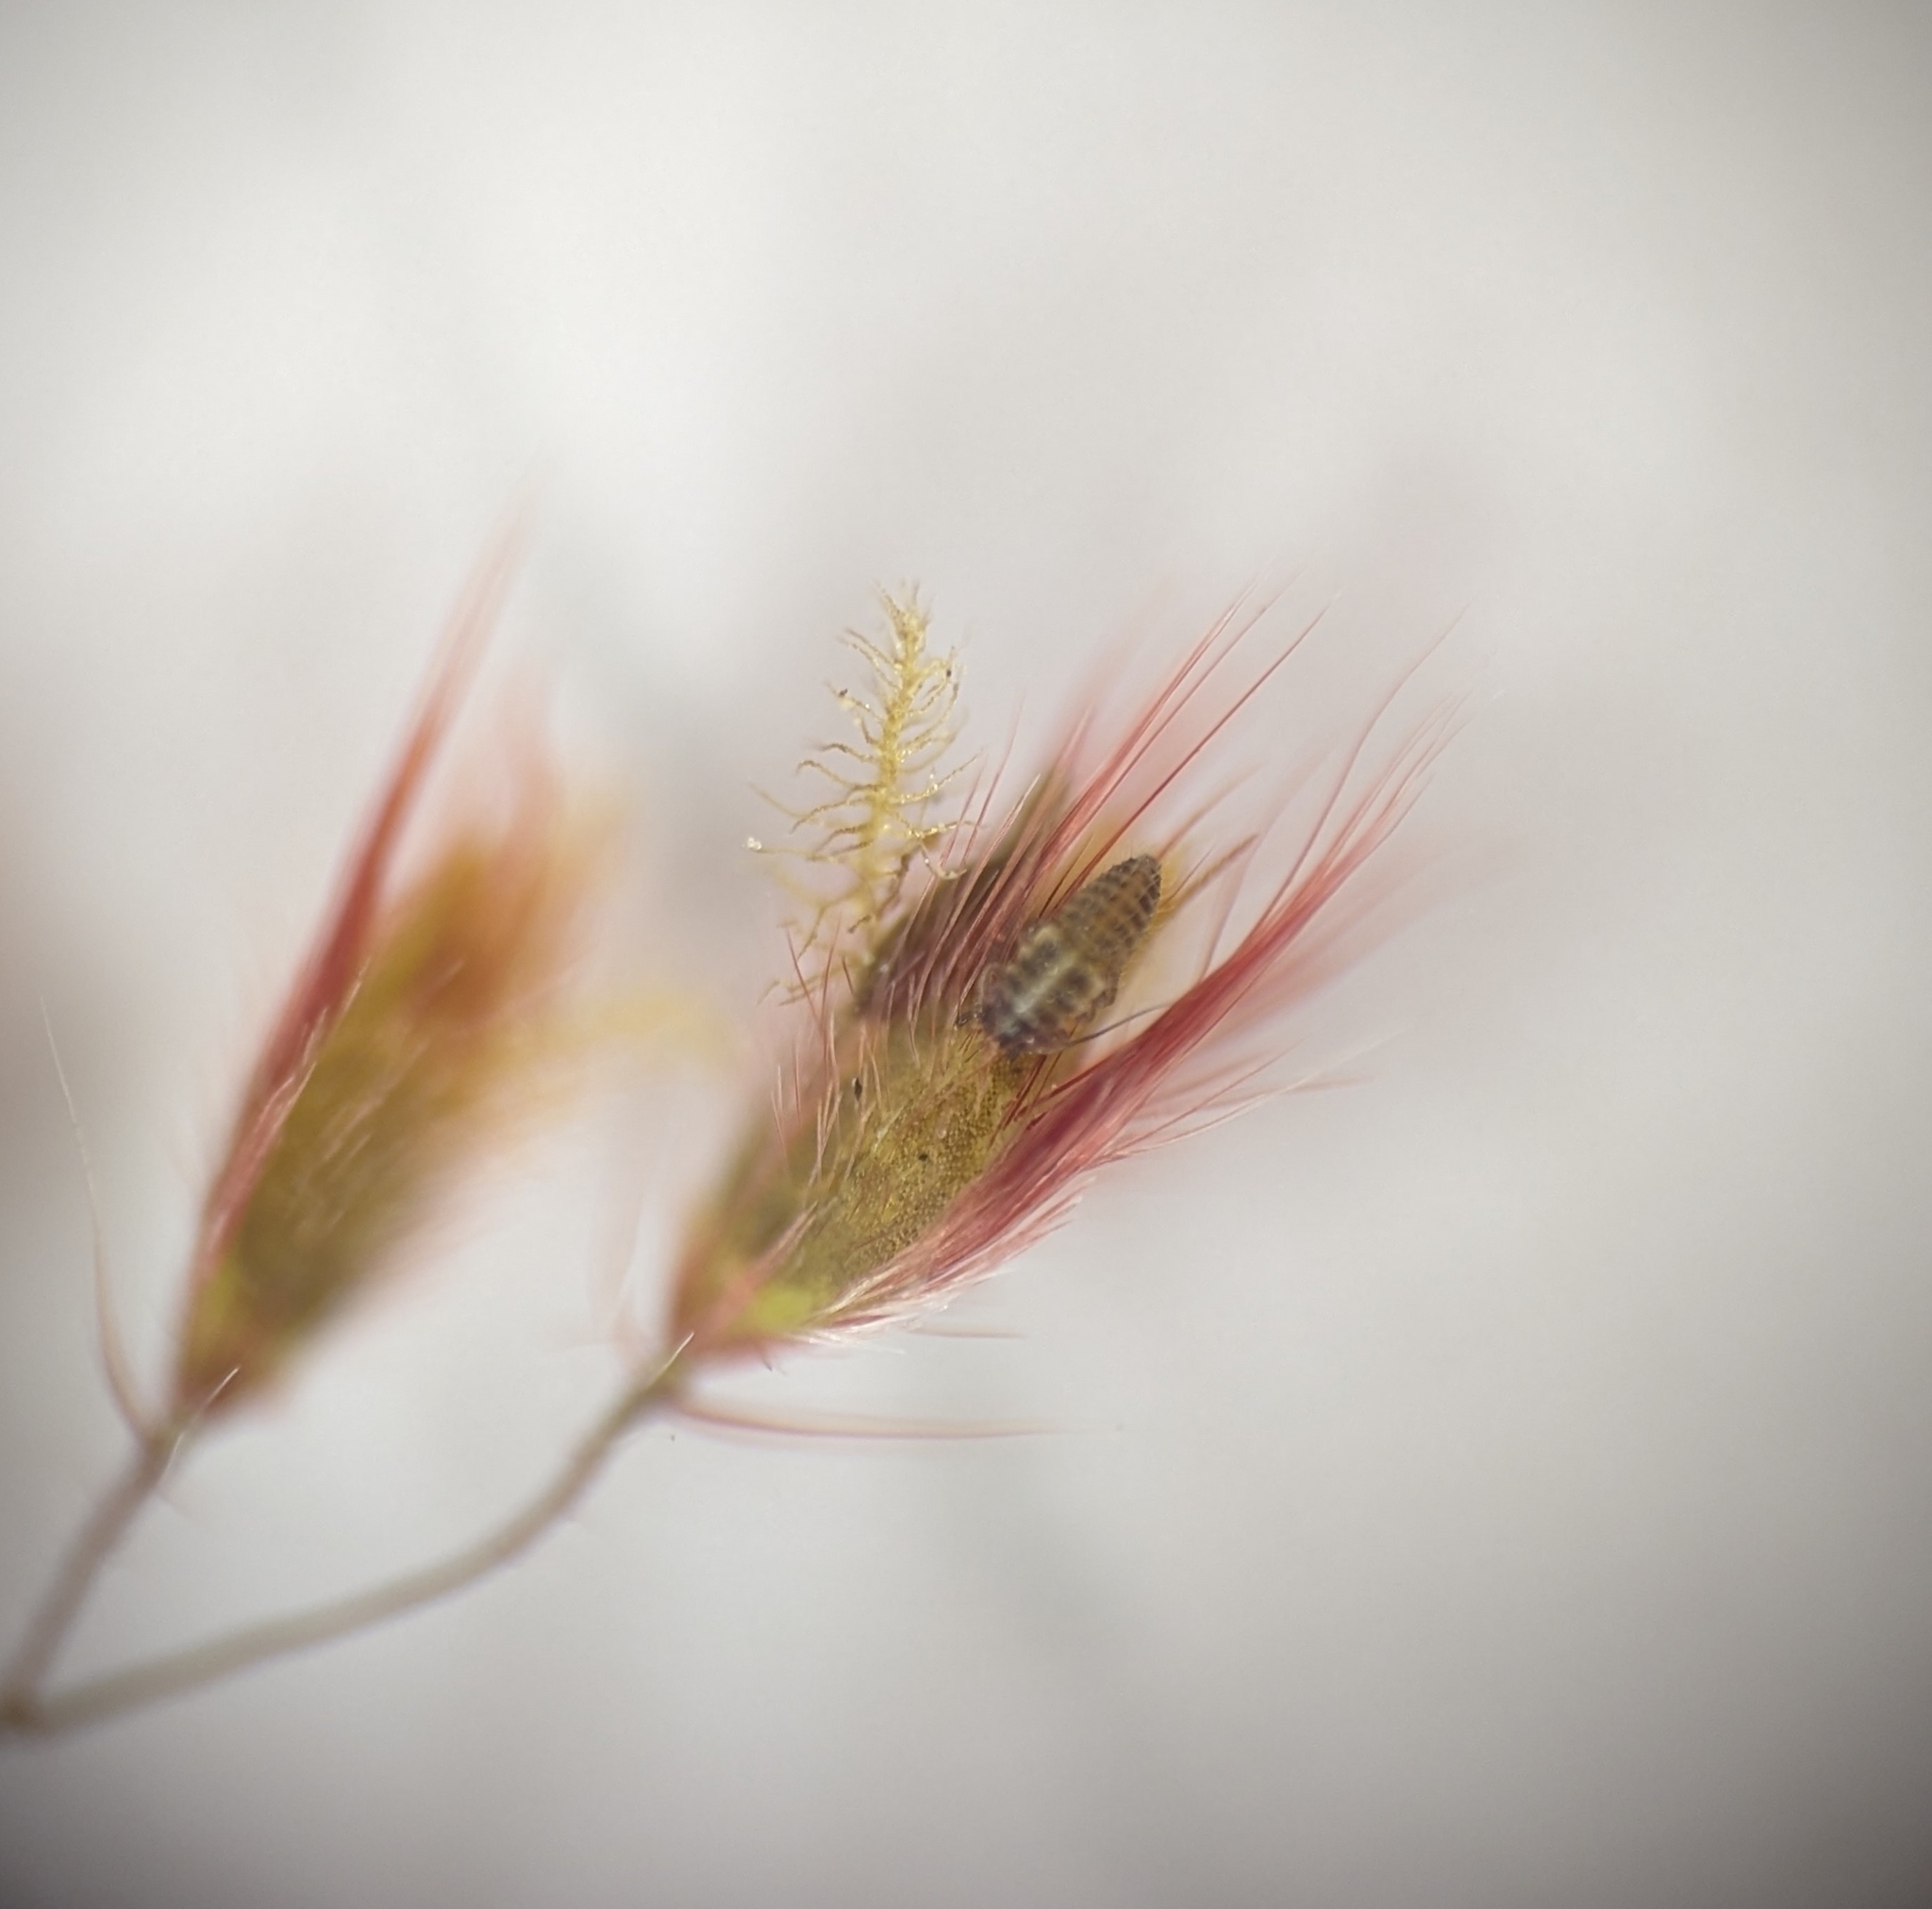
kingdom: Plantae
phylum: Tracheophyta
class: Liliopsida
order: Poales
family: Poaceae
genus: Melinis
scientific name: Melinis repens
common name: Rose natal grass
